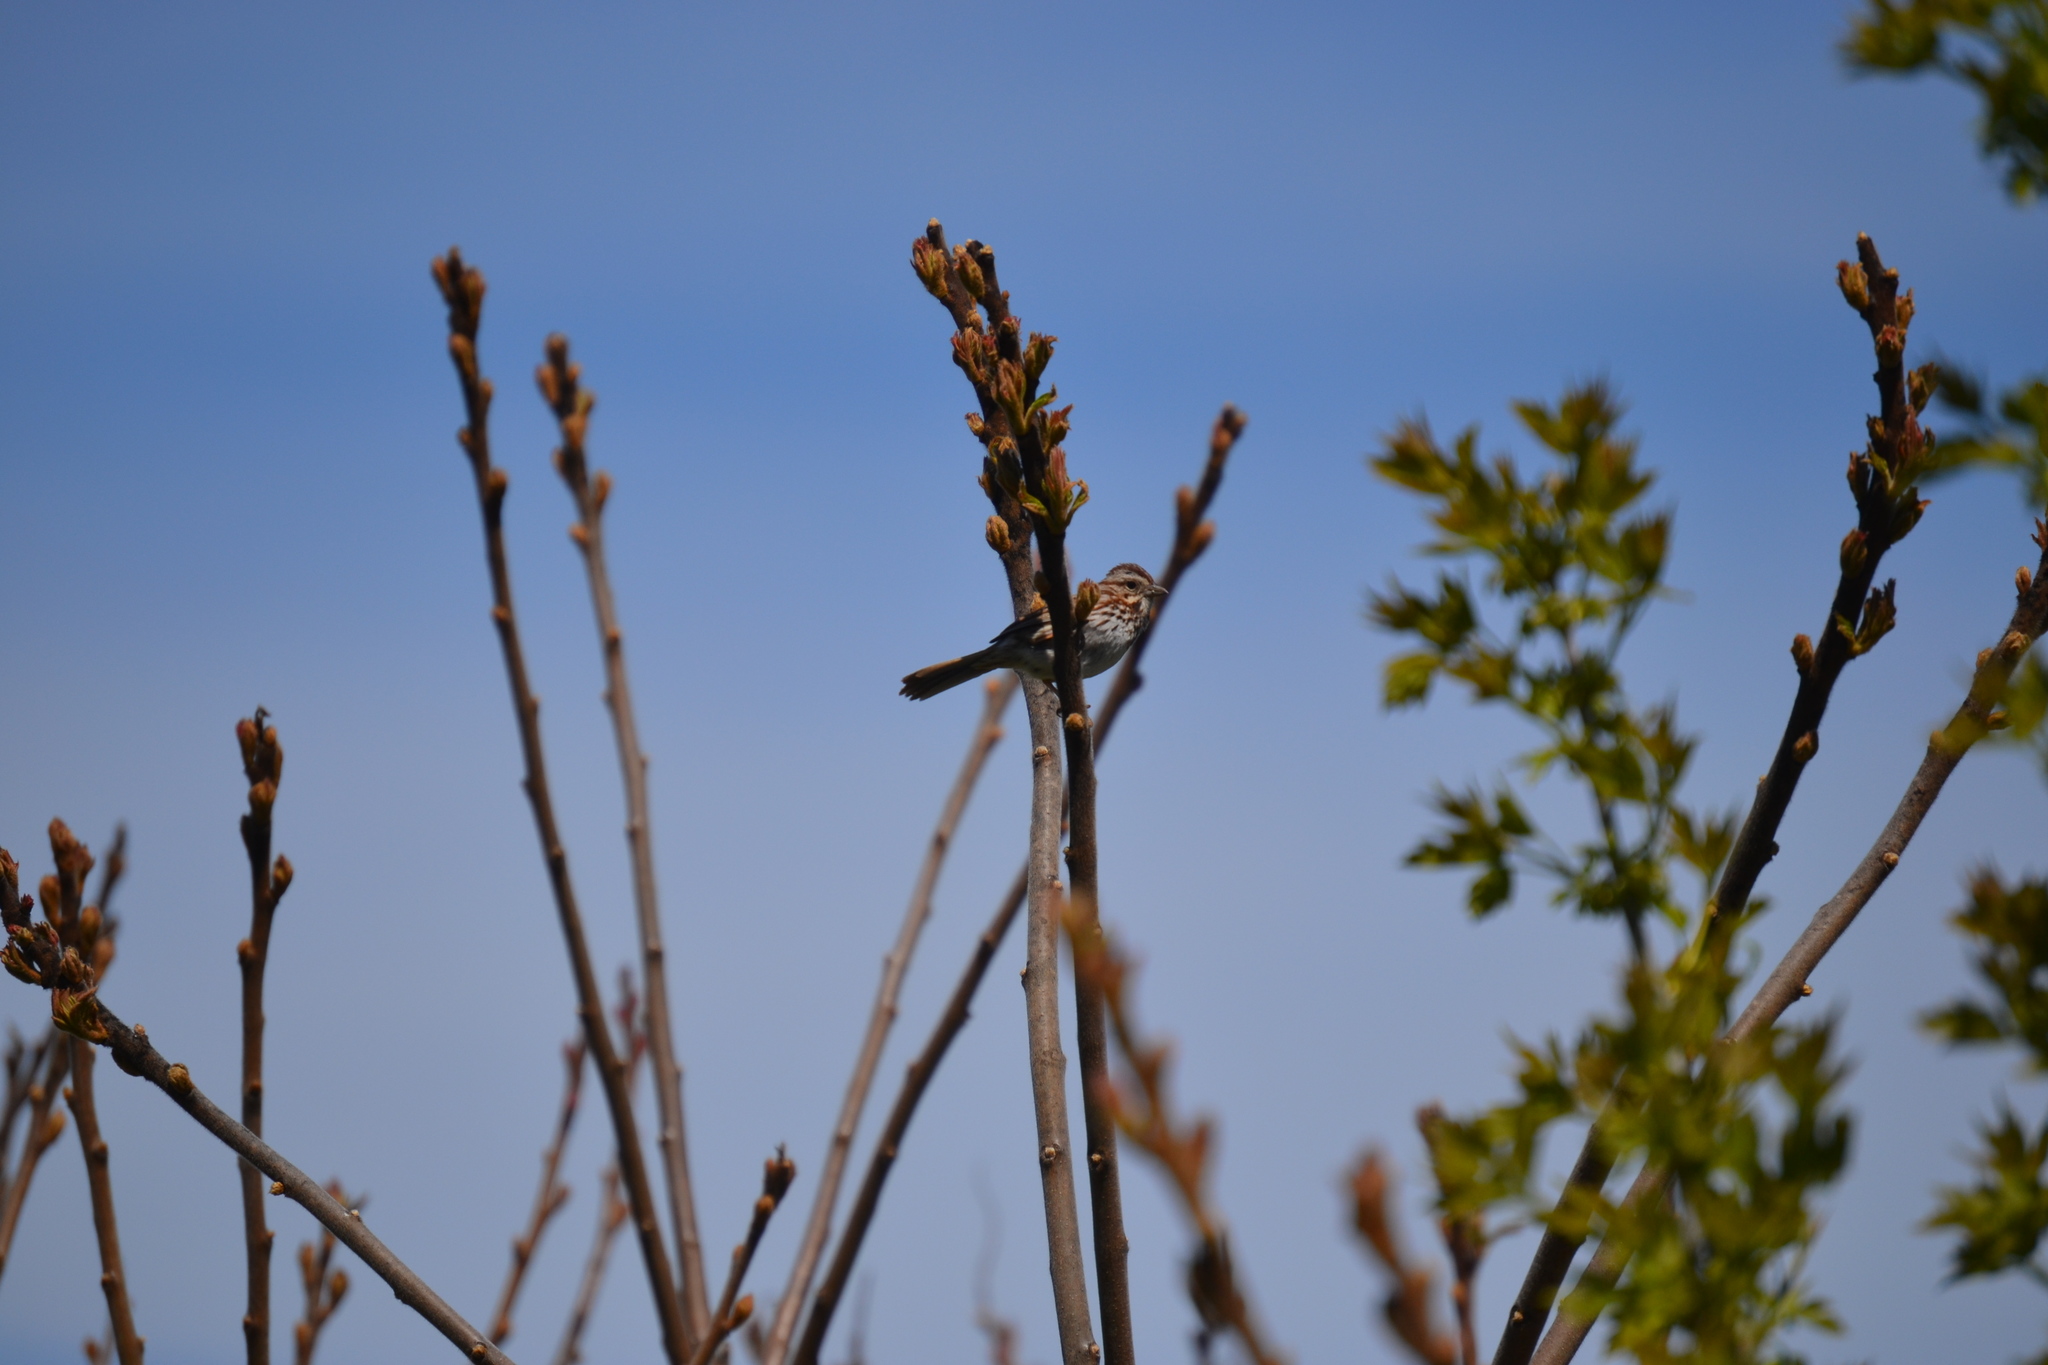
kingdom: Animalia
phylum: Chordata
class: Aves
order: Passeriformes
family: Passerellidae
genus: Melospiza
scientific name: Melospiza melodia
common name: Song sparrow
